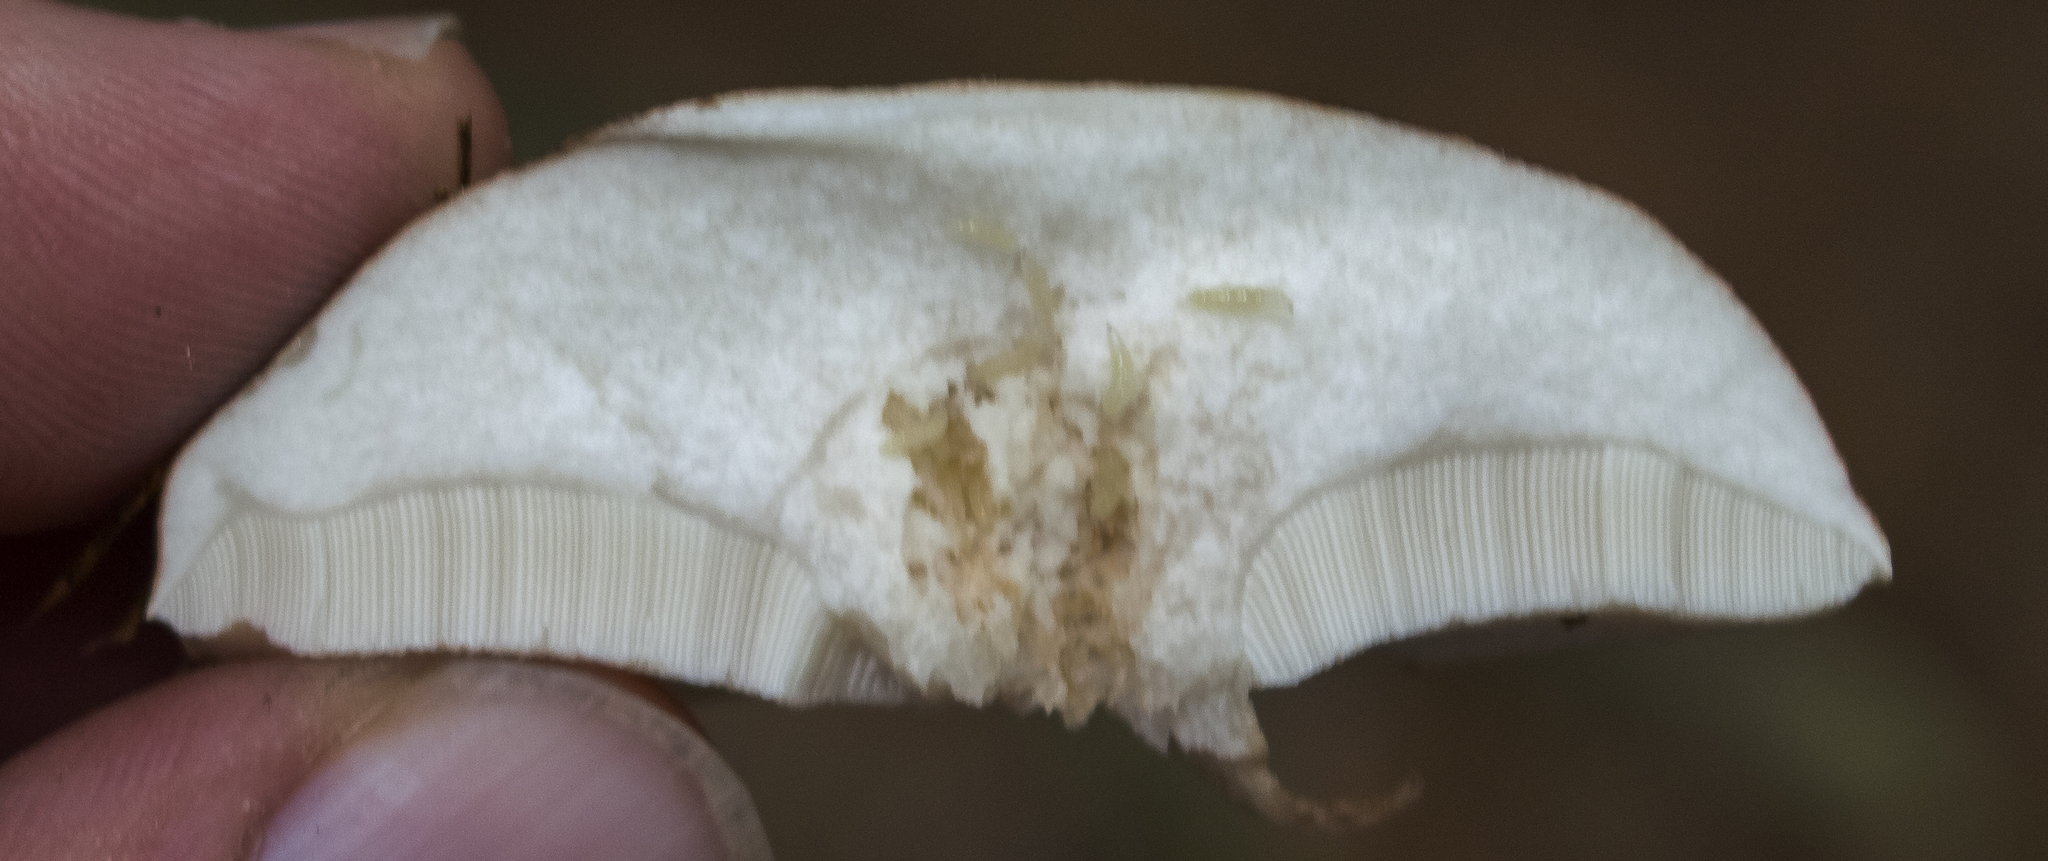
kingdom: Fungi
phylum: Basidiomycota
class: Agaricomycetes
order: Boletales
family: Boletaceae
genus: Tylopilus
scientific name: Tylopilus felleus
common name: Bitter bolete
